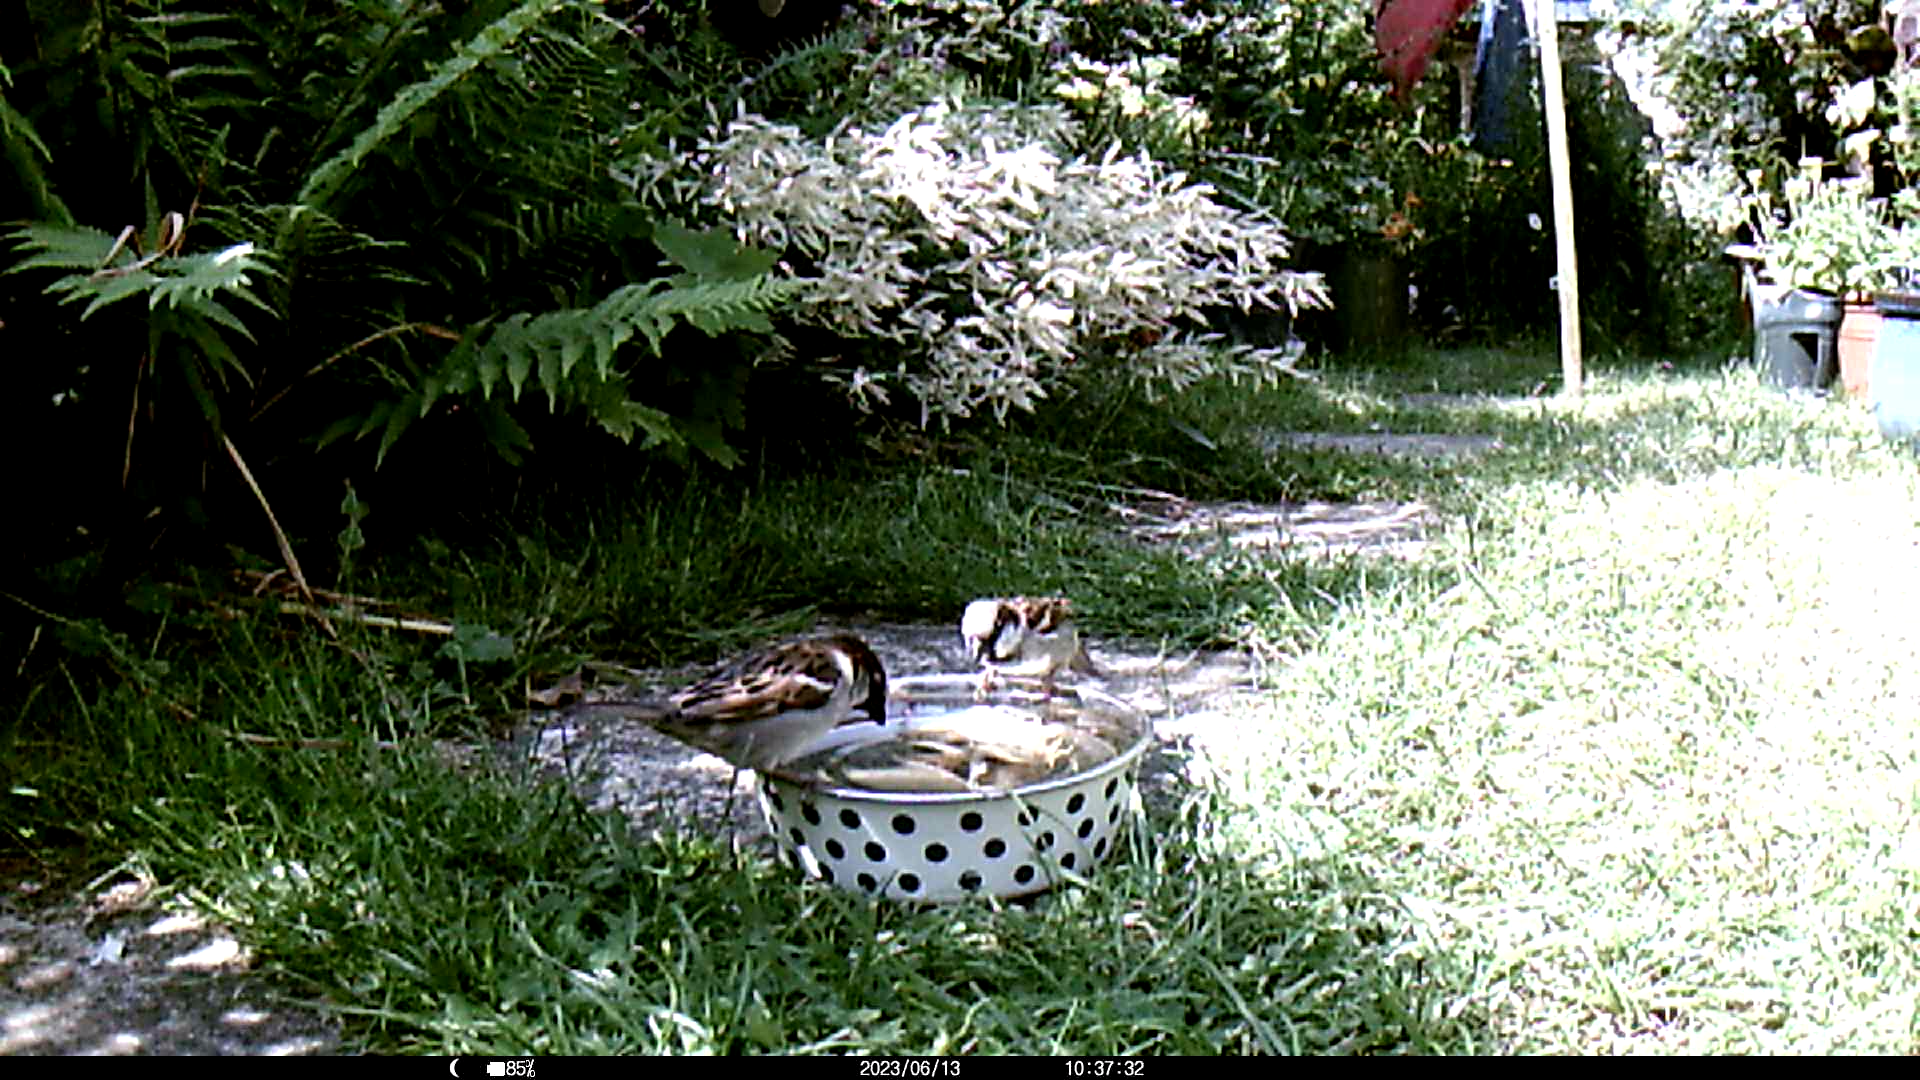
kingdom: Animalia
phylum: Chordata
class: Aves
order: Passeriformes
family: Passeridae
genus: Passer
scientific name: Passer domesticus
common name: House sparrow
